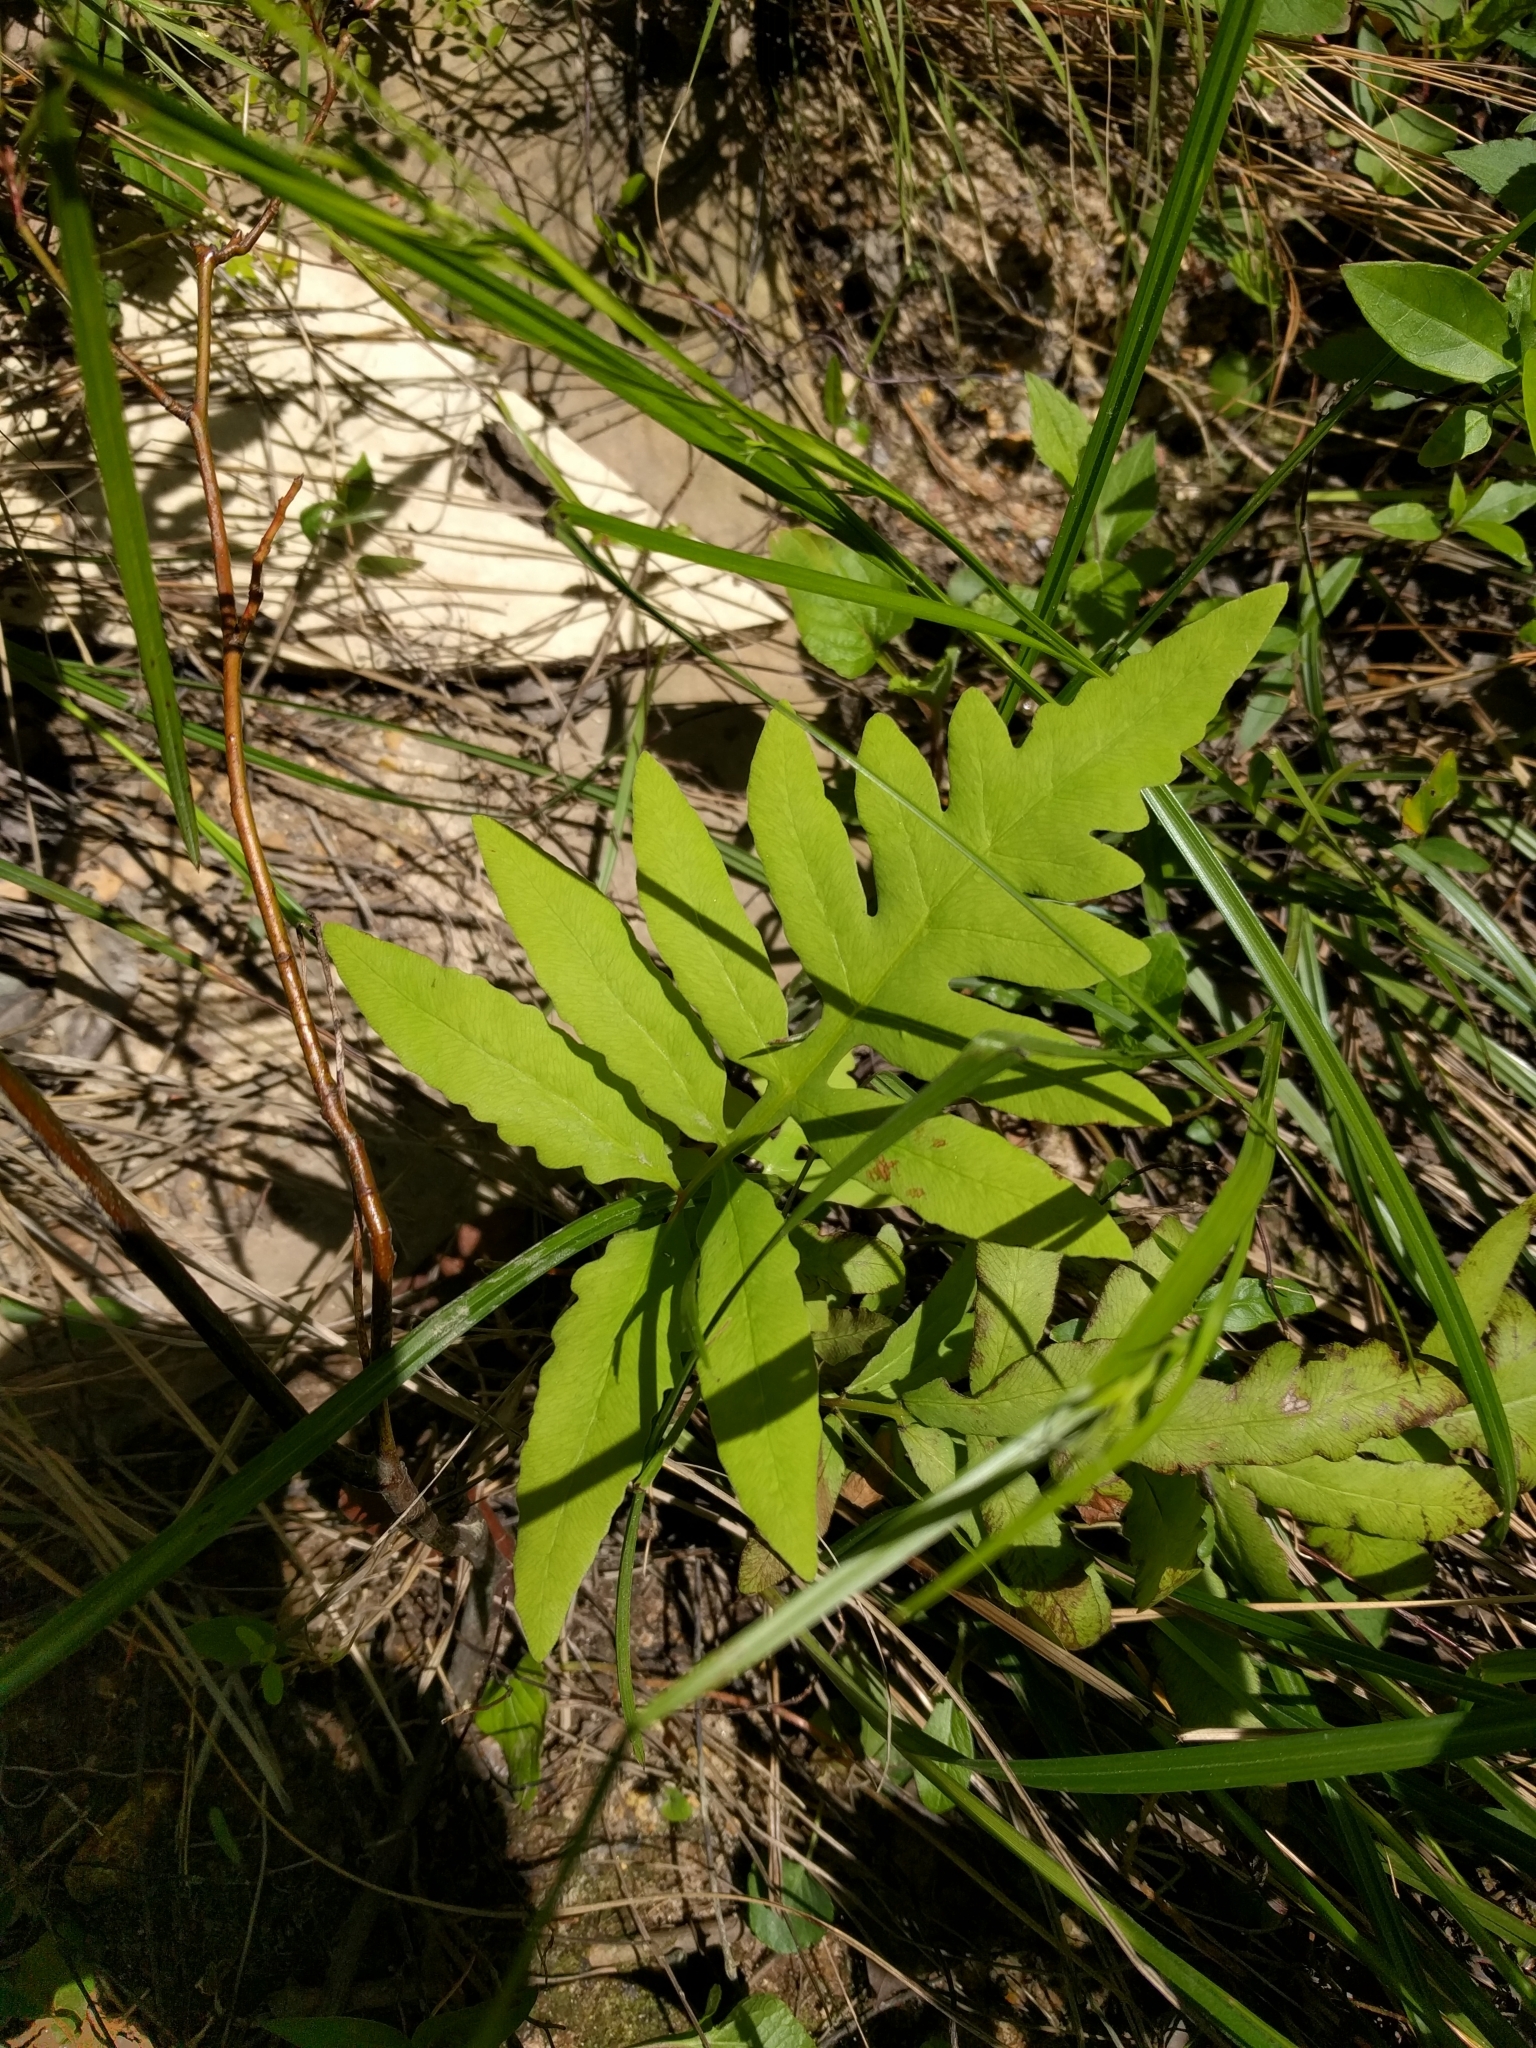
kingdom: Plantae
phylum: Tracheophyta
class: Polypodiopsida
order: Polypodiales
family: Onocleaceae
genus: Onoclea
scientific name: Onoclea sensibilis
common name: Sensitive fern
